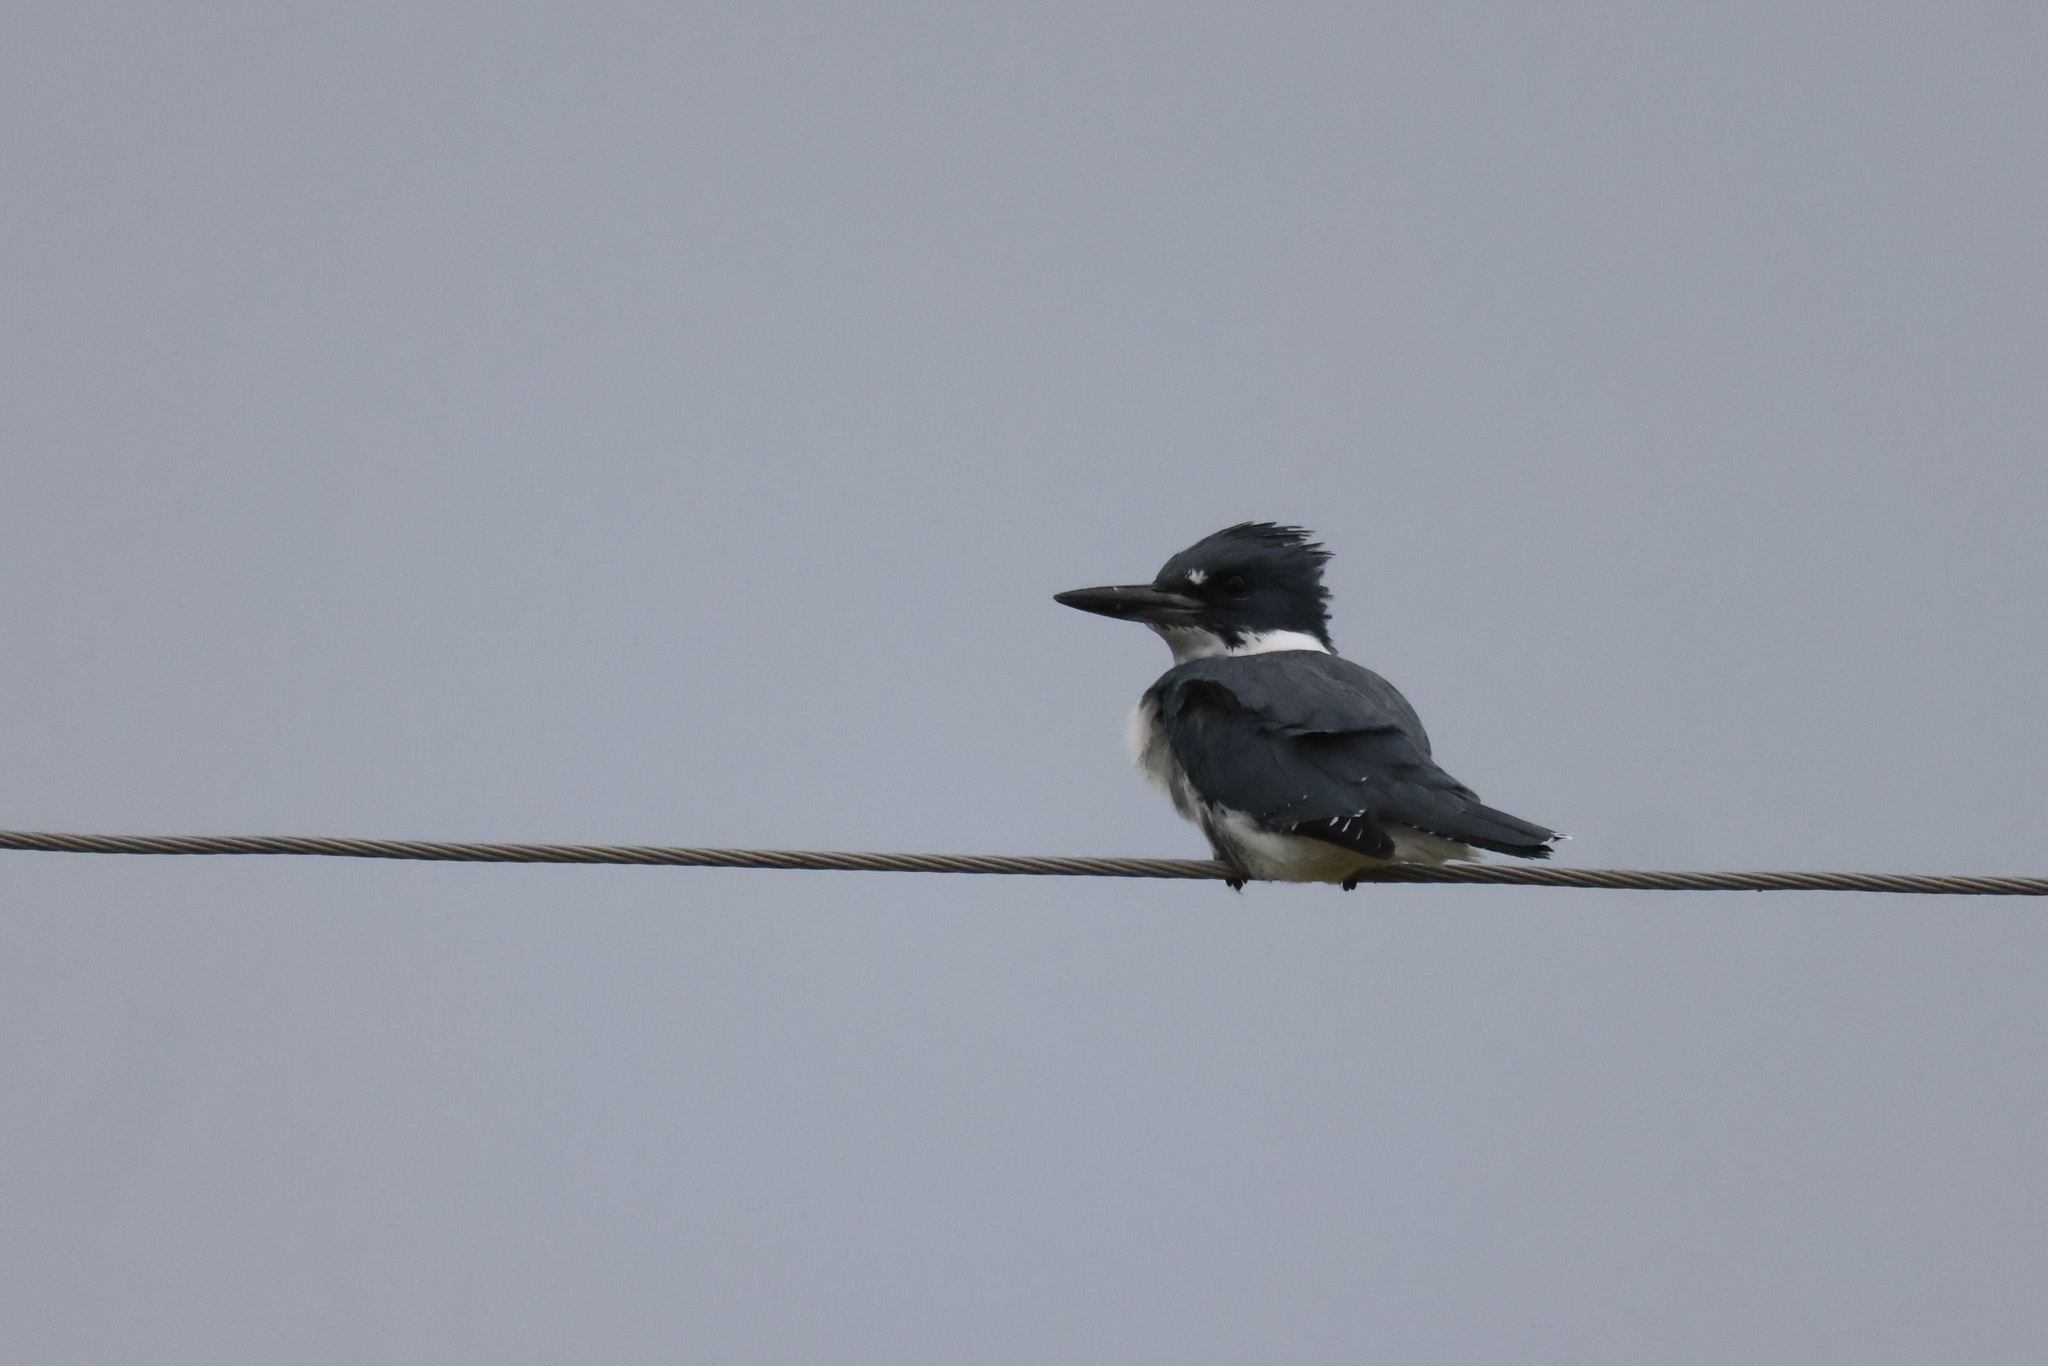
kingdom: Animalia
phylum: Chordata
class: Aves
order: Coraciiformes
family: Alcedinidae
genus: Megaceryle
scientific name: Megaceryle alcyon
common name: Belted kingfisher
